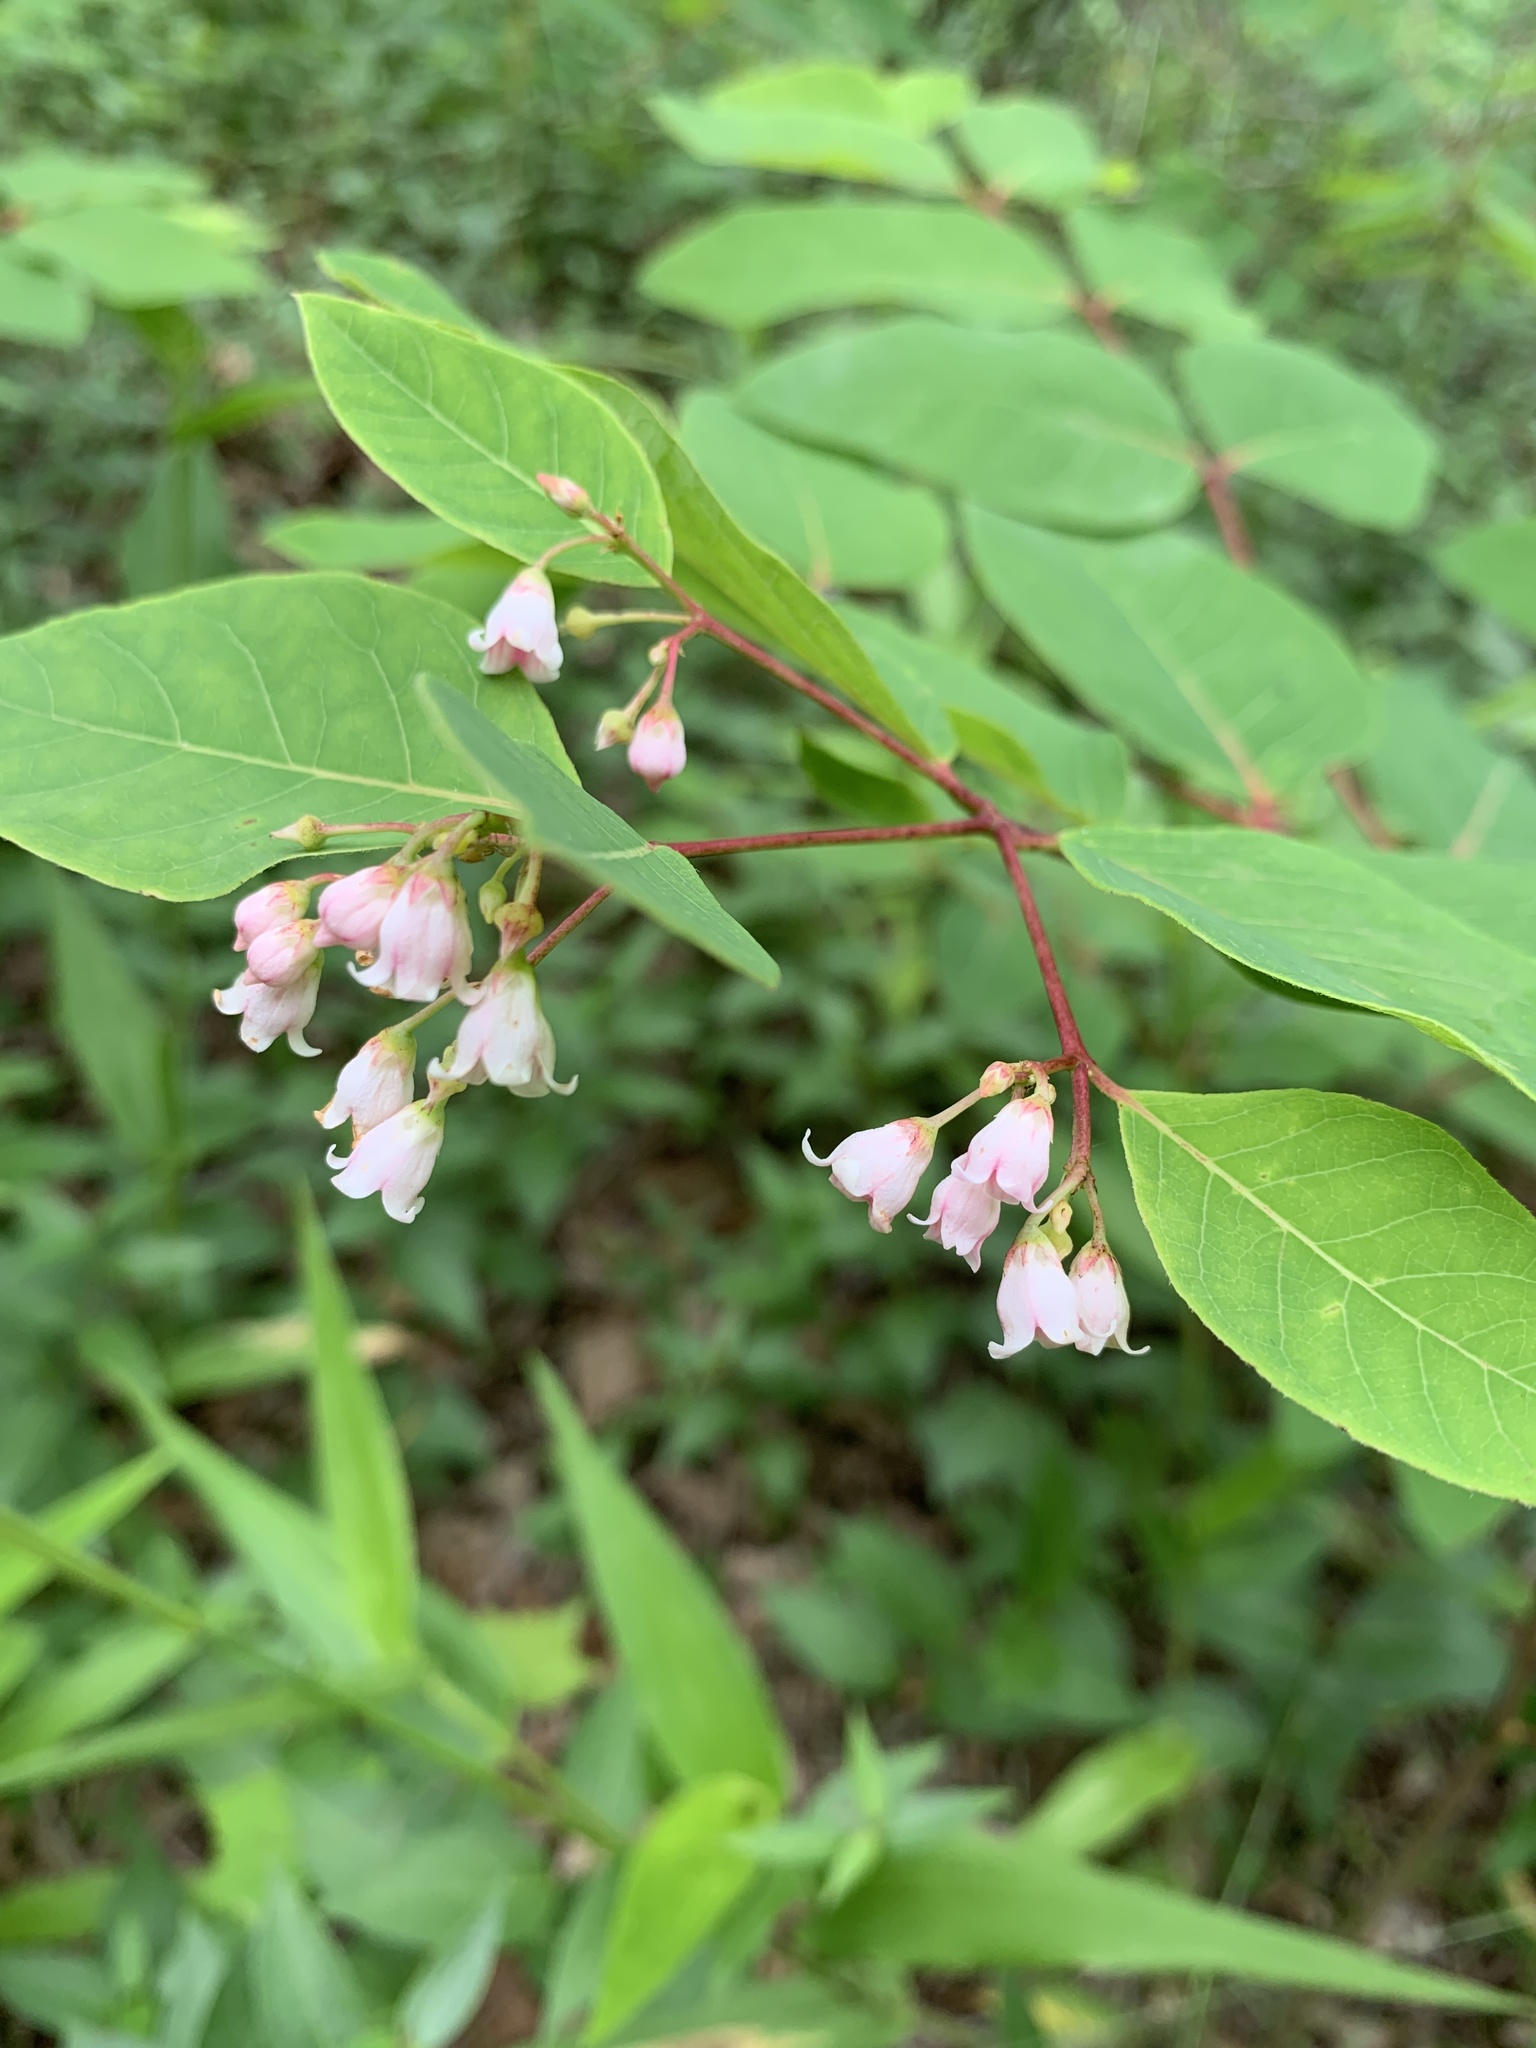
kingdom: Plantae
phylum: Tracheophyta
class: Magnoliopsida
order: Gentianales
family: Apocynaceae
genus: Apocynum
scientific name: Apocynum androsaemifolium
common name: Spreading dogbane
